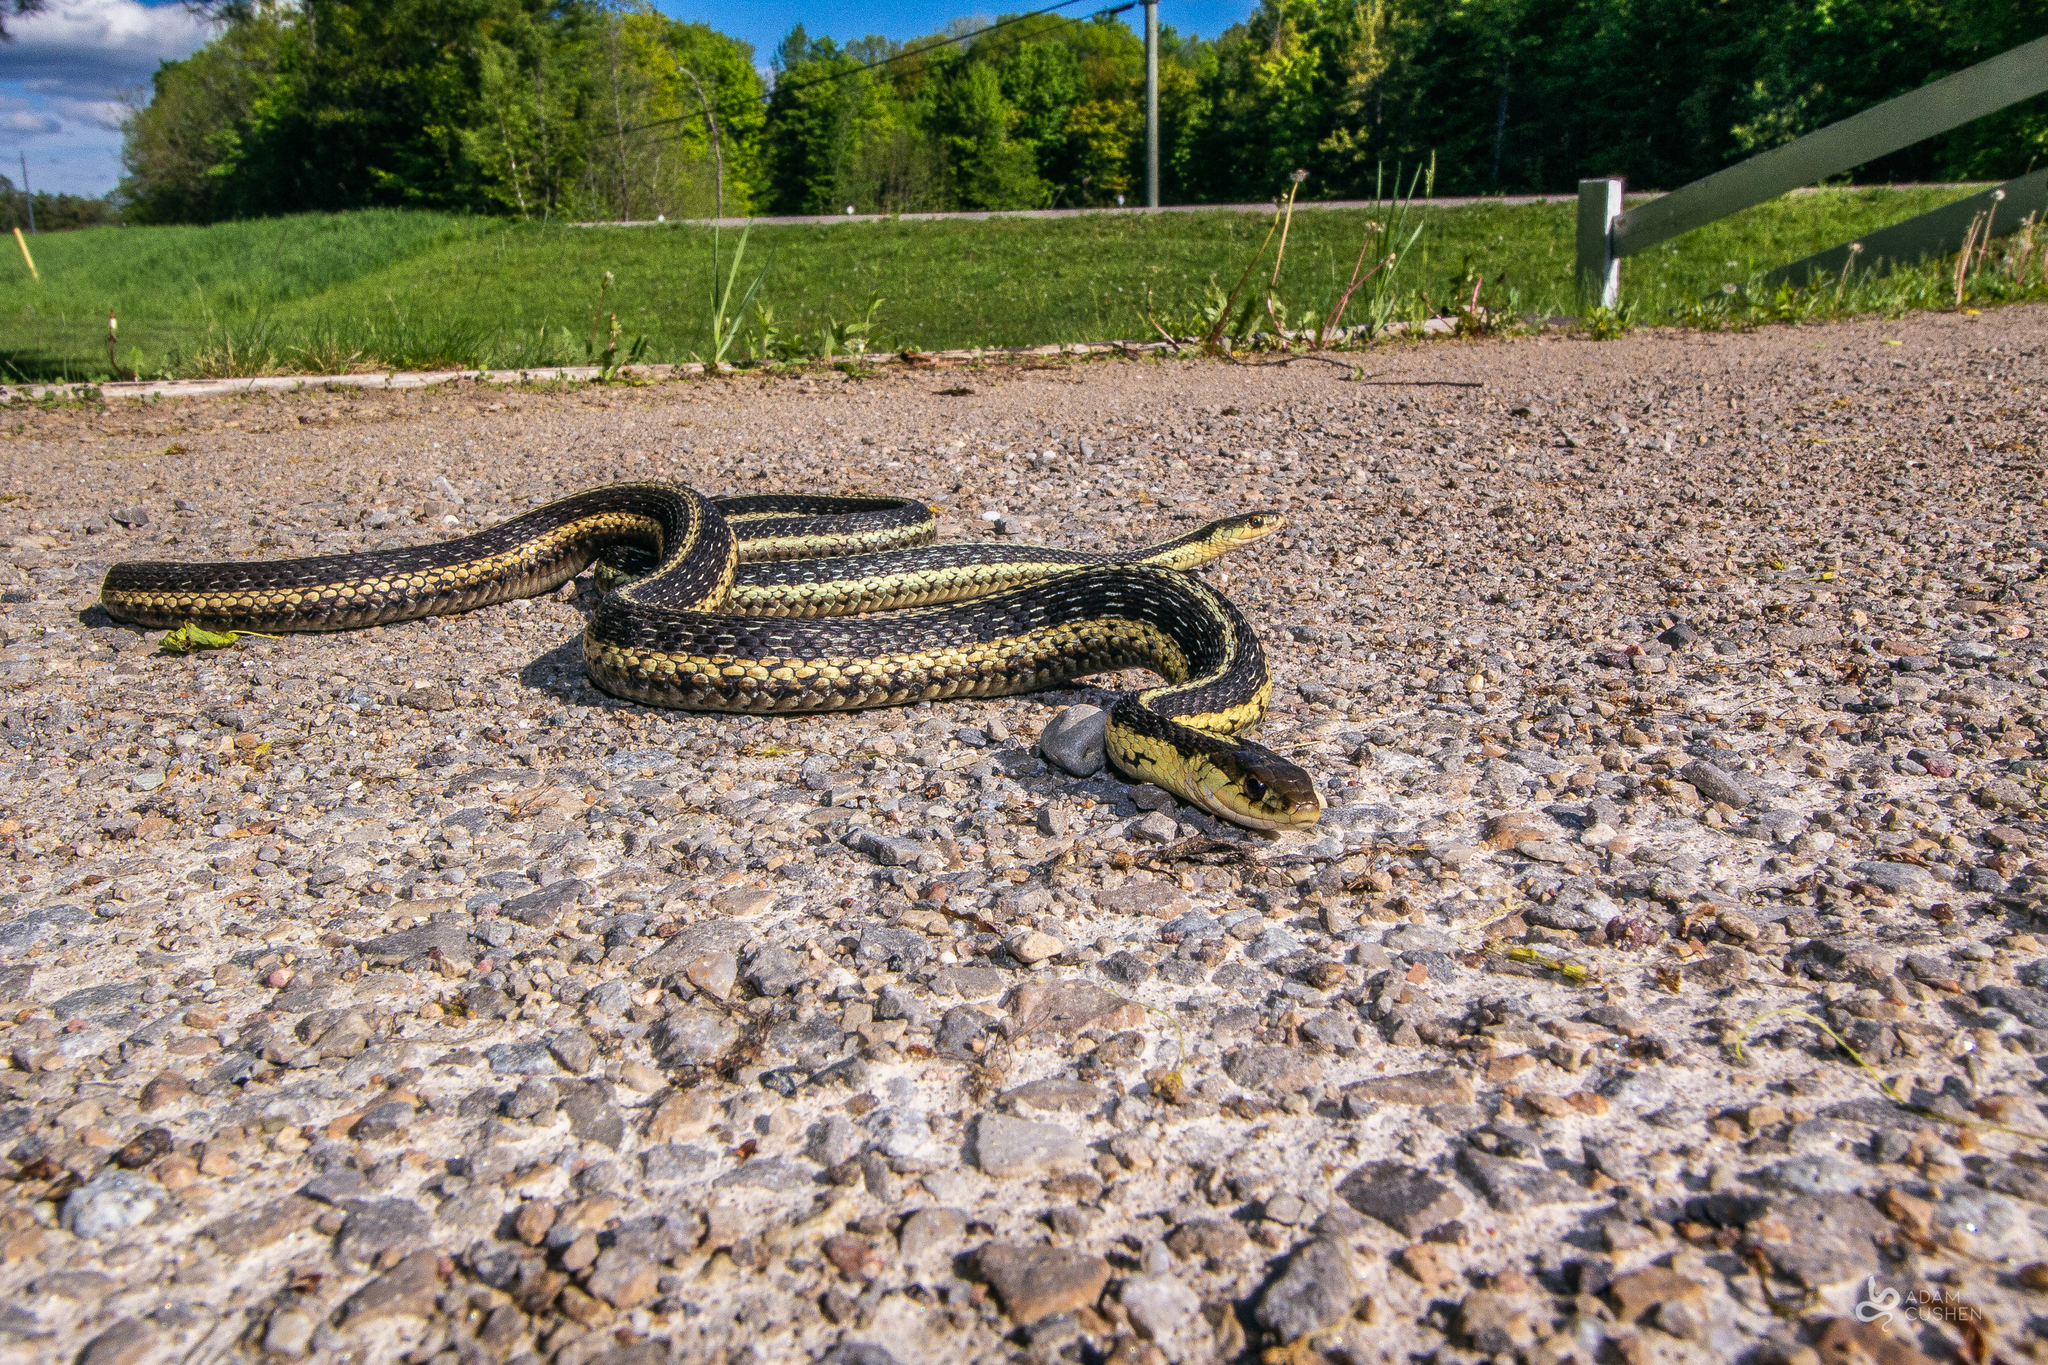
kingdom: Animalia
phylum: Chordata
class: Squamata
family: Colubridae
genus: Thamnophis
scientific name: Thamnophis sirtalis
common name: Common garter snake
